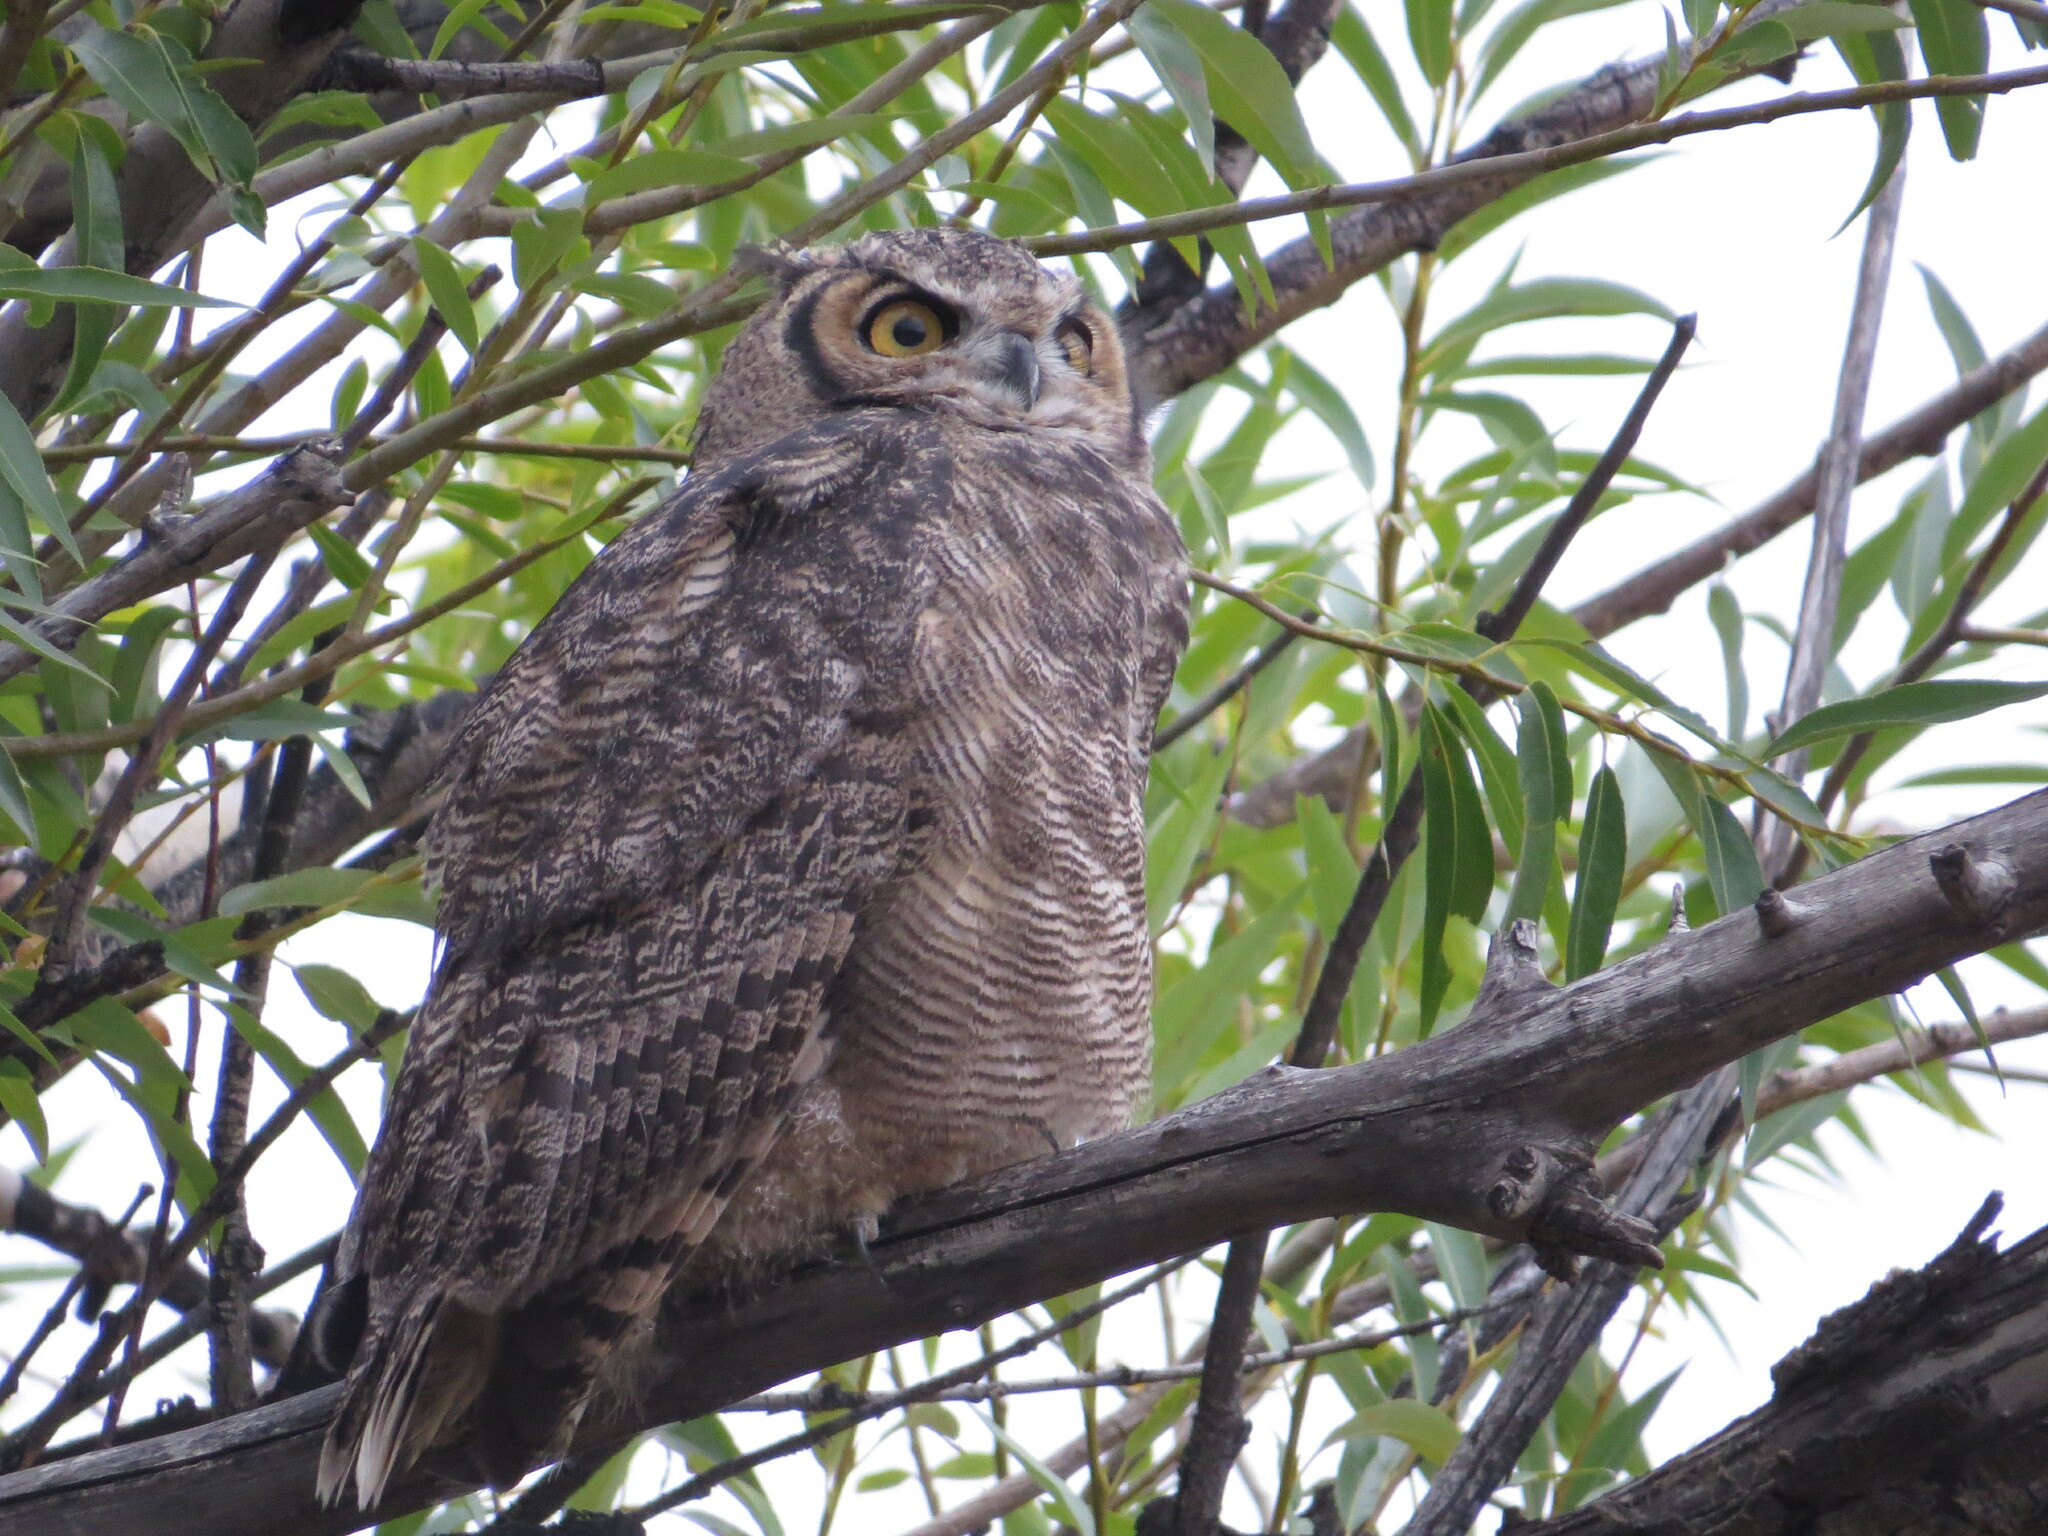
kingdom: Animalia
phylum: Chordata
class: Aves
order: Strigiformes
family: Strigidae
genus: Bubo
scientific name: Bubo magellanicus
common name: Lesser horned owl
